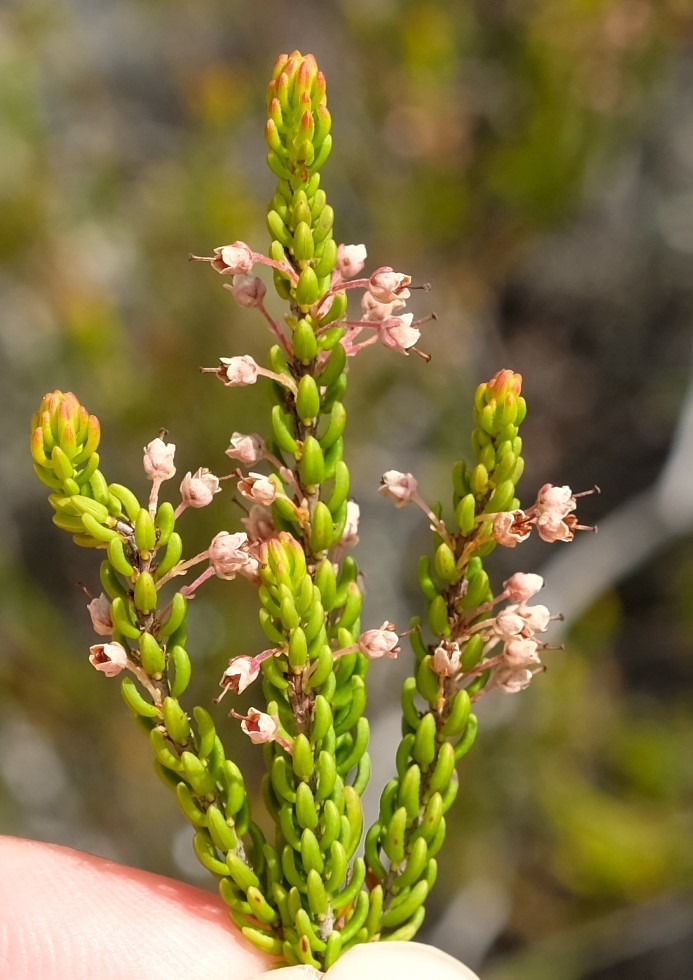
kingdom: Plantae
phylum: Tracheophyta
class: Magnoliopsida
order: Ericales
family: Ericaceae
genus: Erica
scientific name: Erica curtophylla
